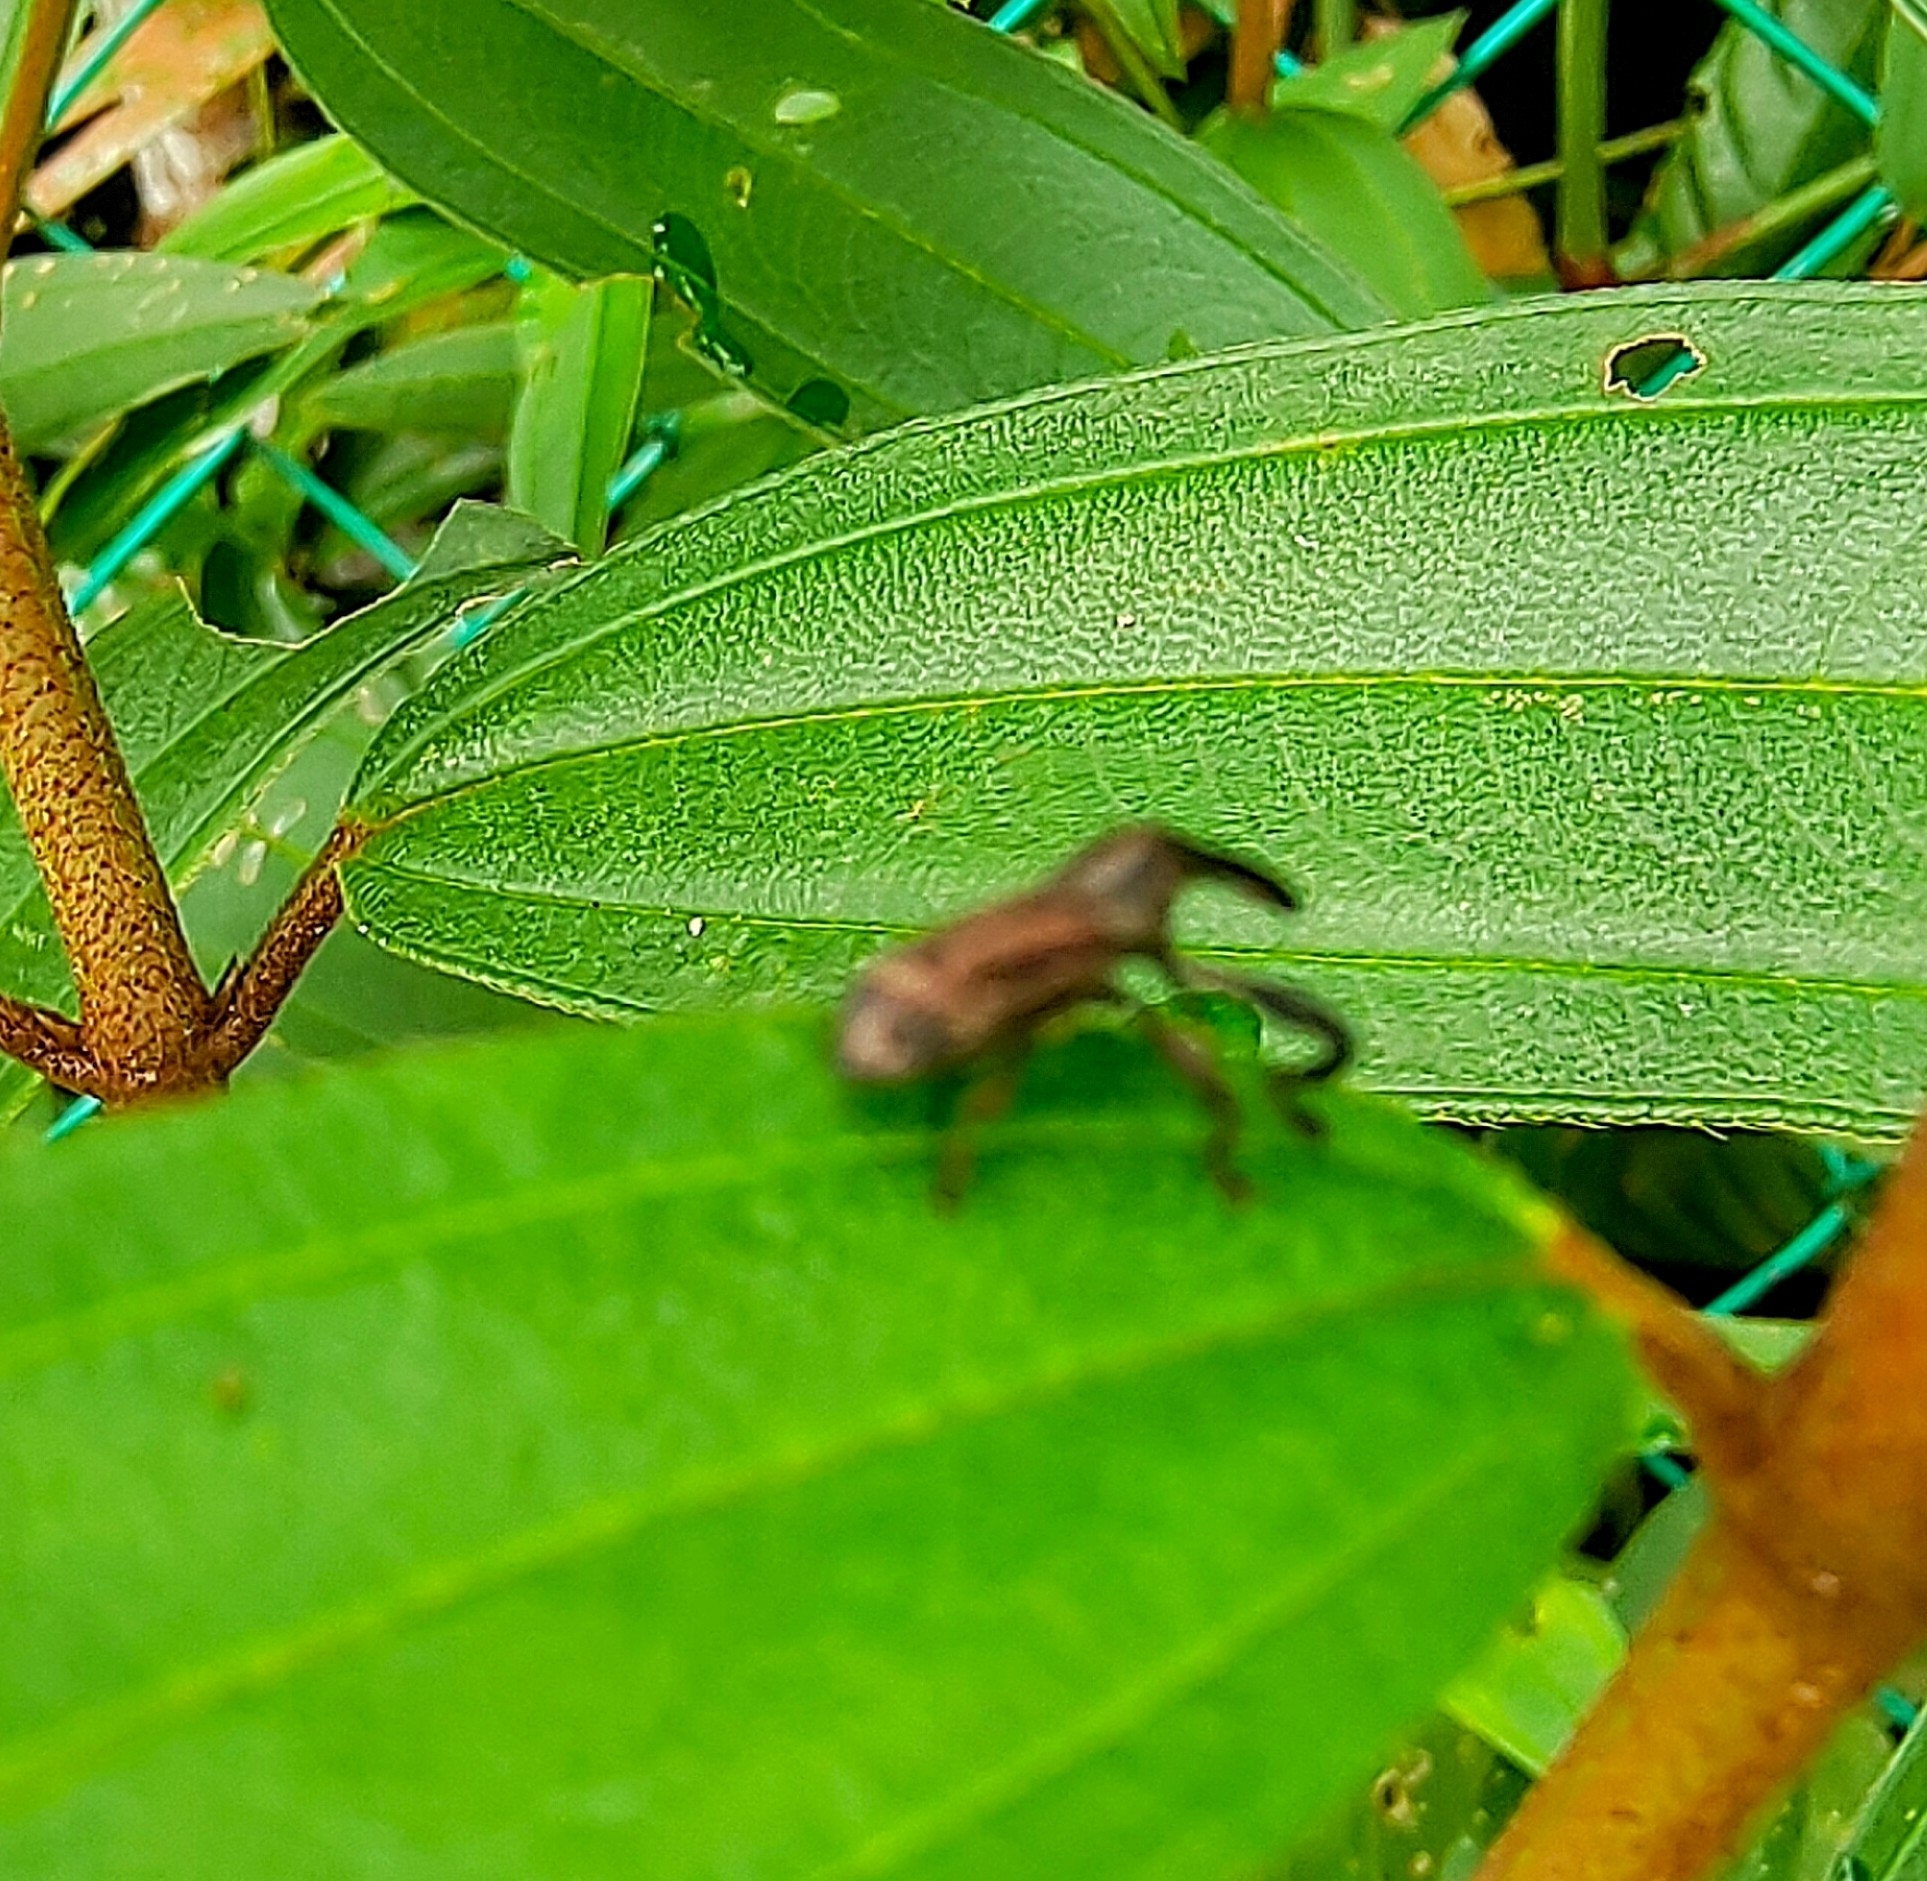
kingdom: Animalia
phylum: Arthropoda
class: Insecta
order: Coleoptera
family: Curculionidae
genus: Sternuchopsis
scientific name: Sternuchopsis
